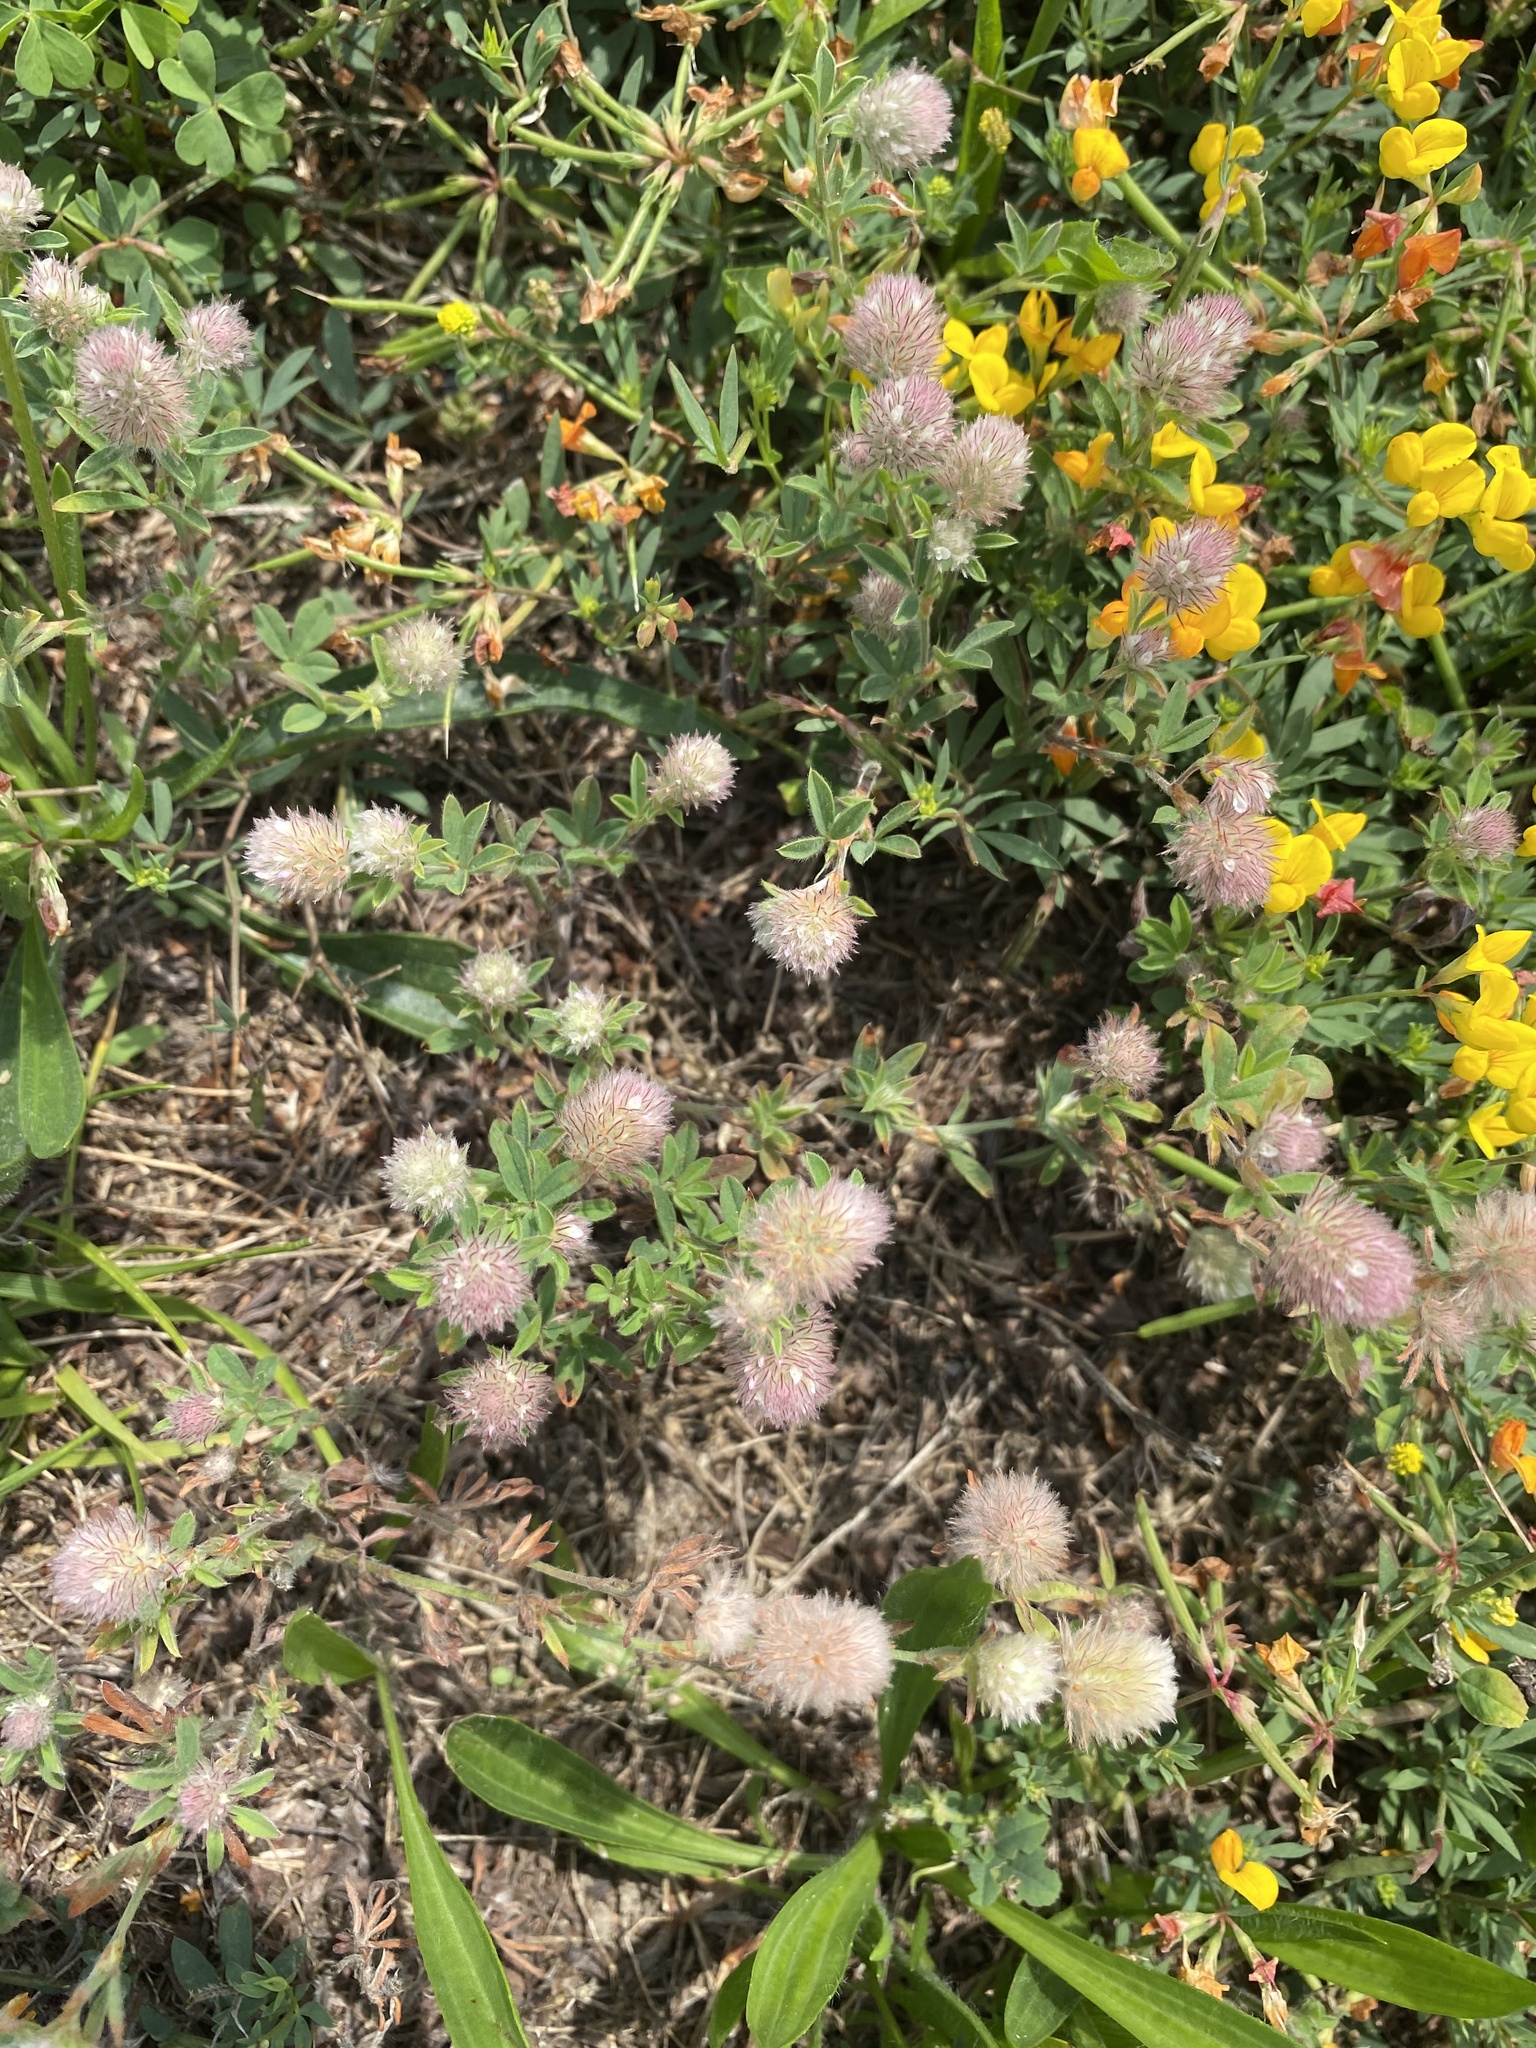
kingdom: Plantae
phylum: Tracheophyta
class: Magnoliopsida
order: Fabales
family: Fabaceae
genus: Trifolium
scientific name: Trifolium arvense
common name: Hare's-foot clover
